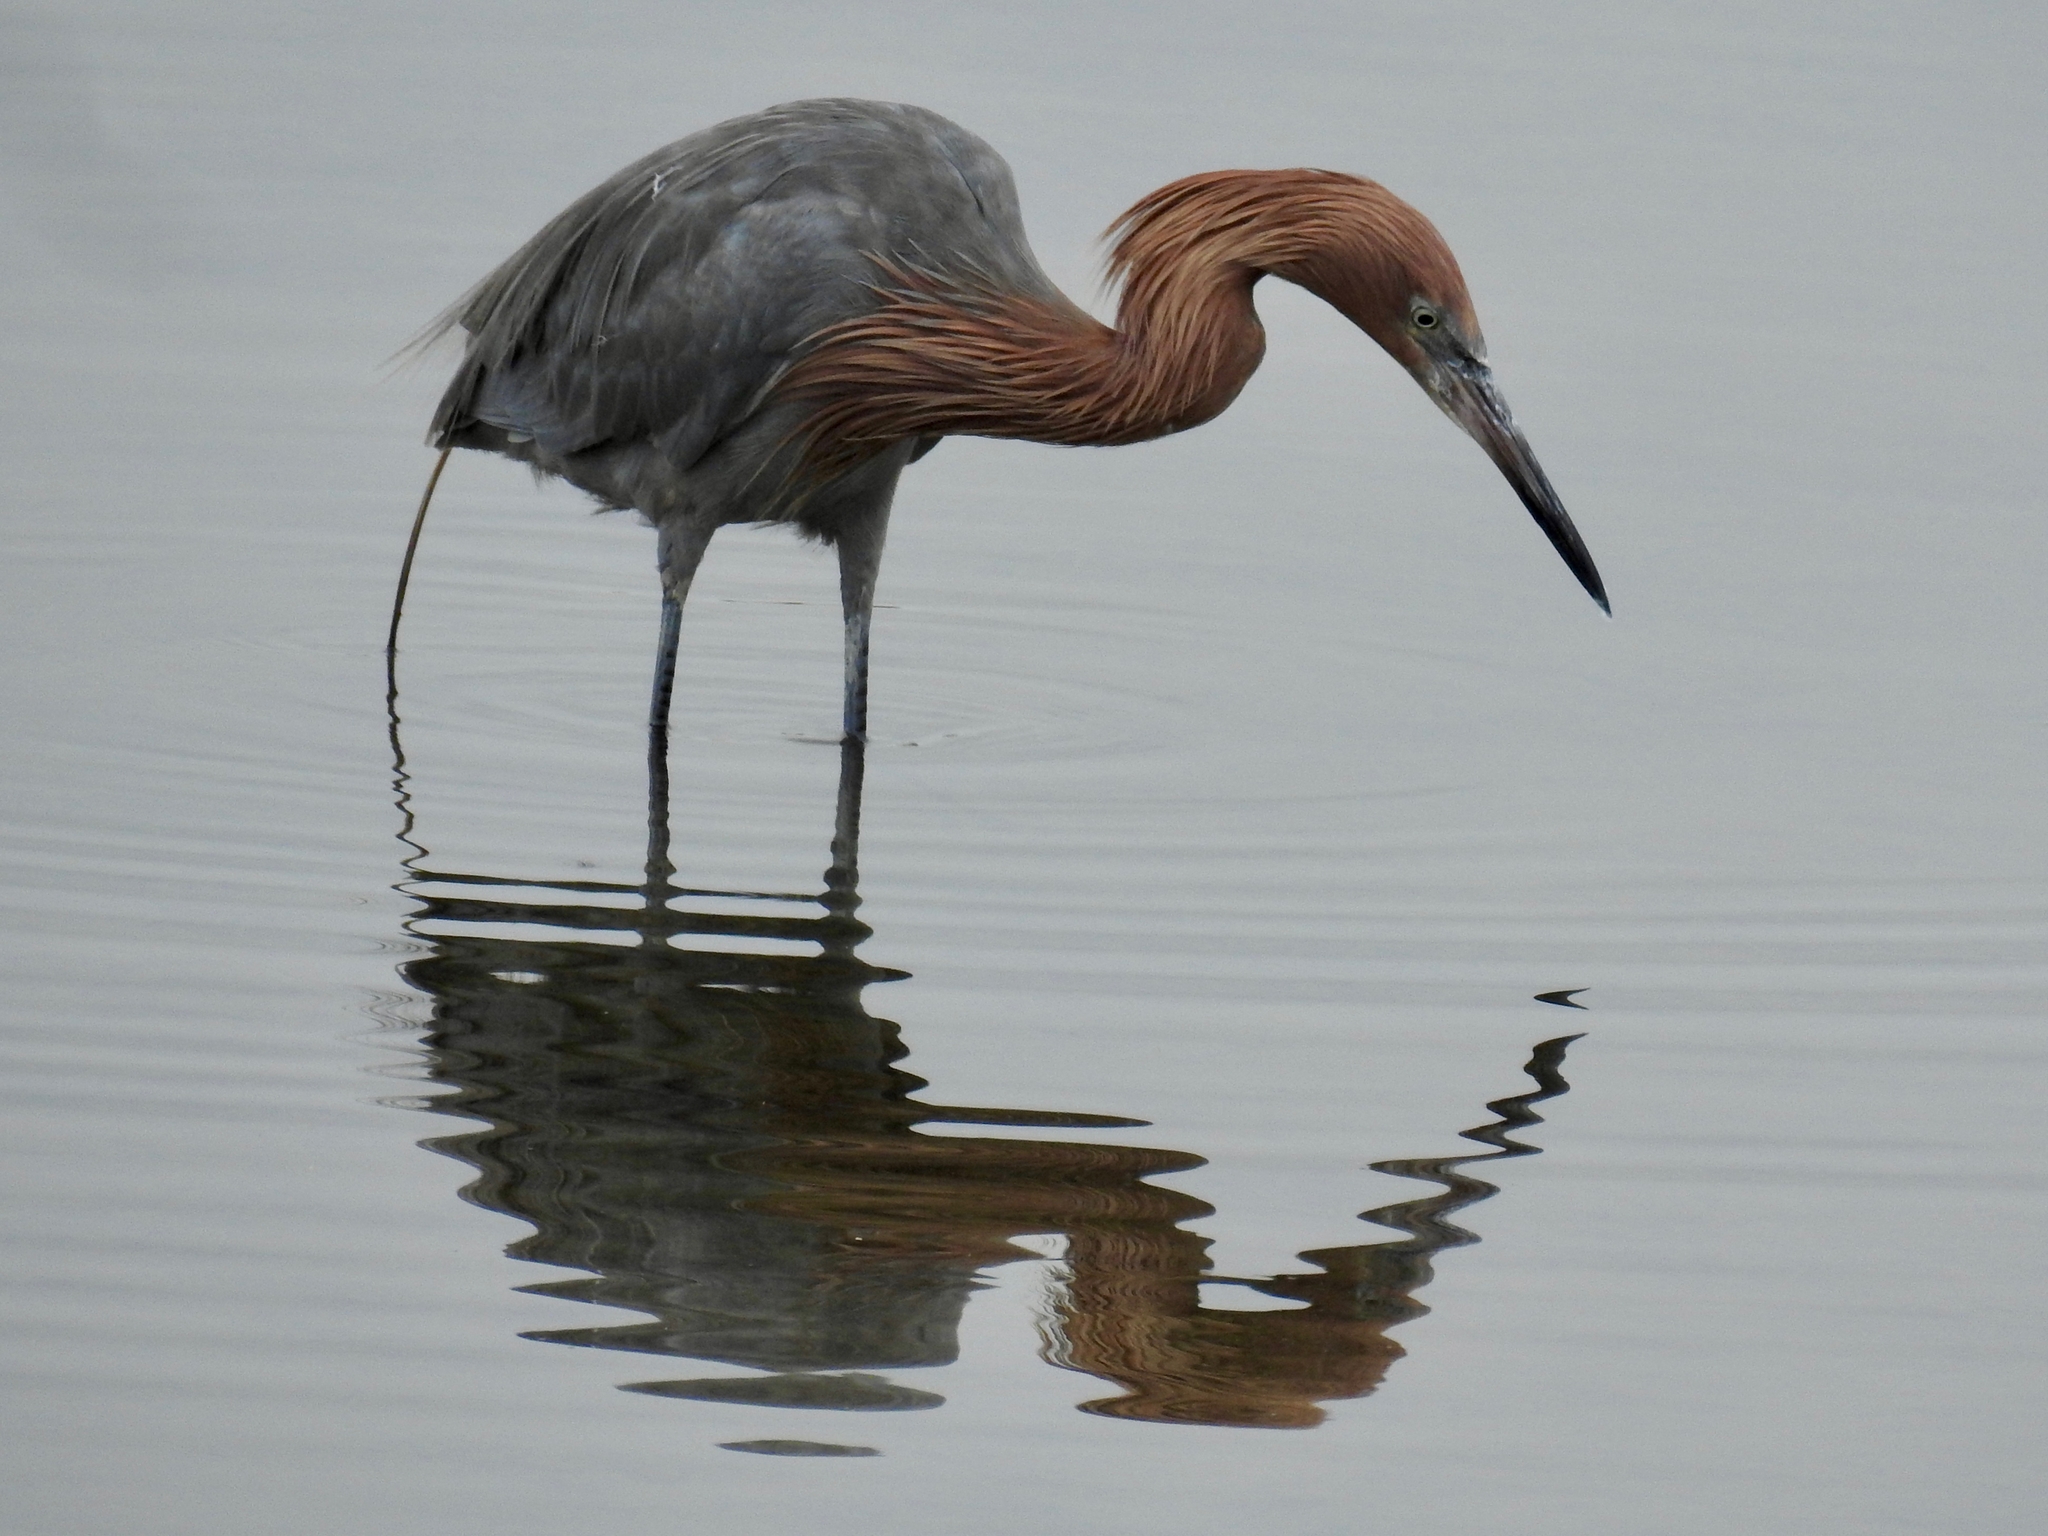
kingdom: Animalia
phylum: Chordata
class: Aves
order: Pelecaniformes
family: Ardeidae
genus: Egretta
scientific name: Egretta rufescens
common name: Reddish egret
